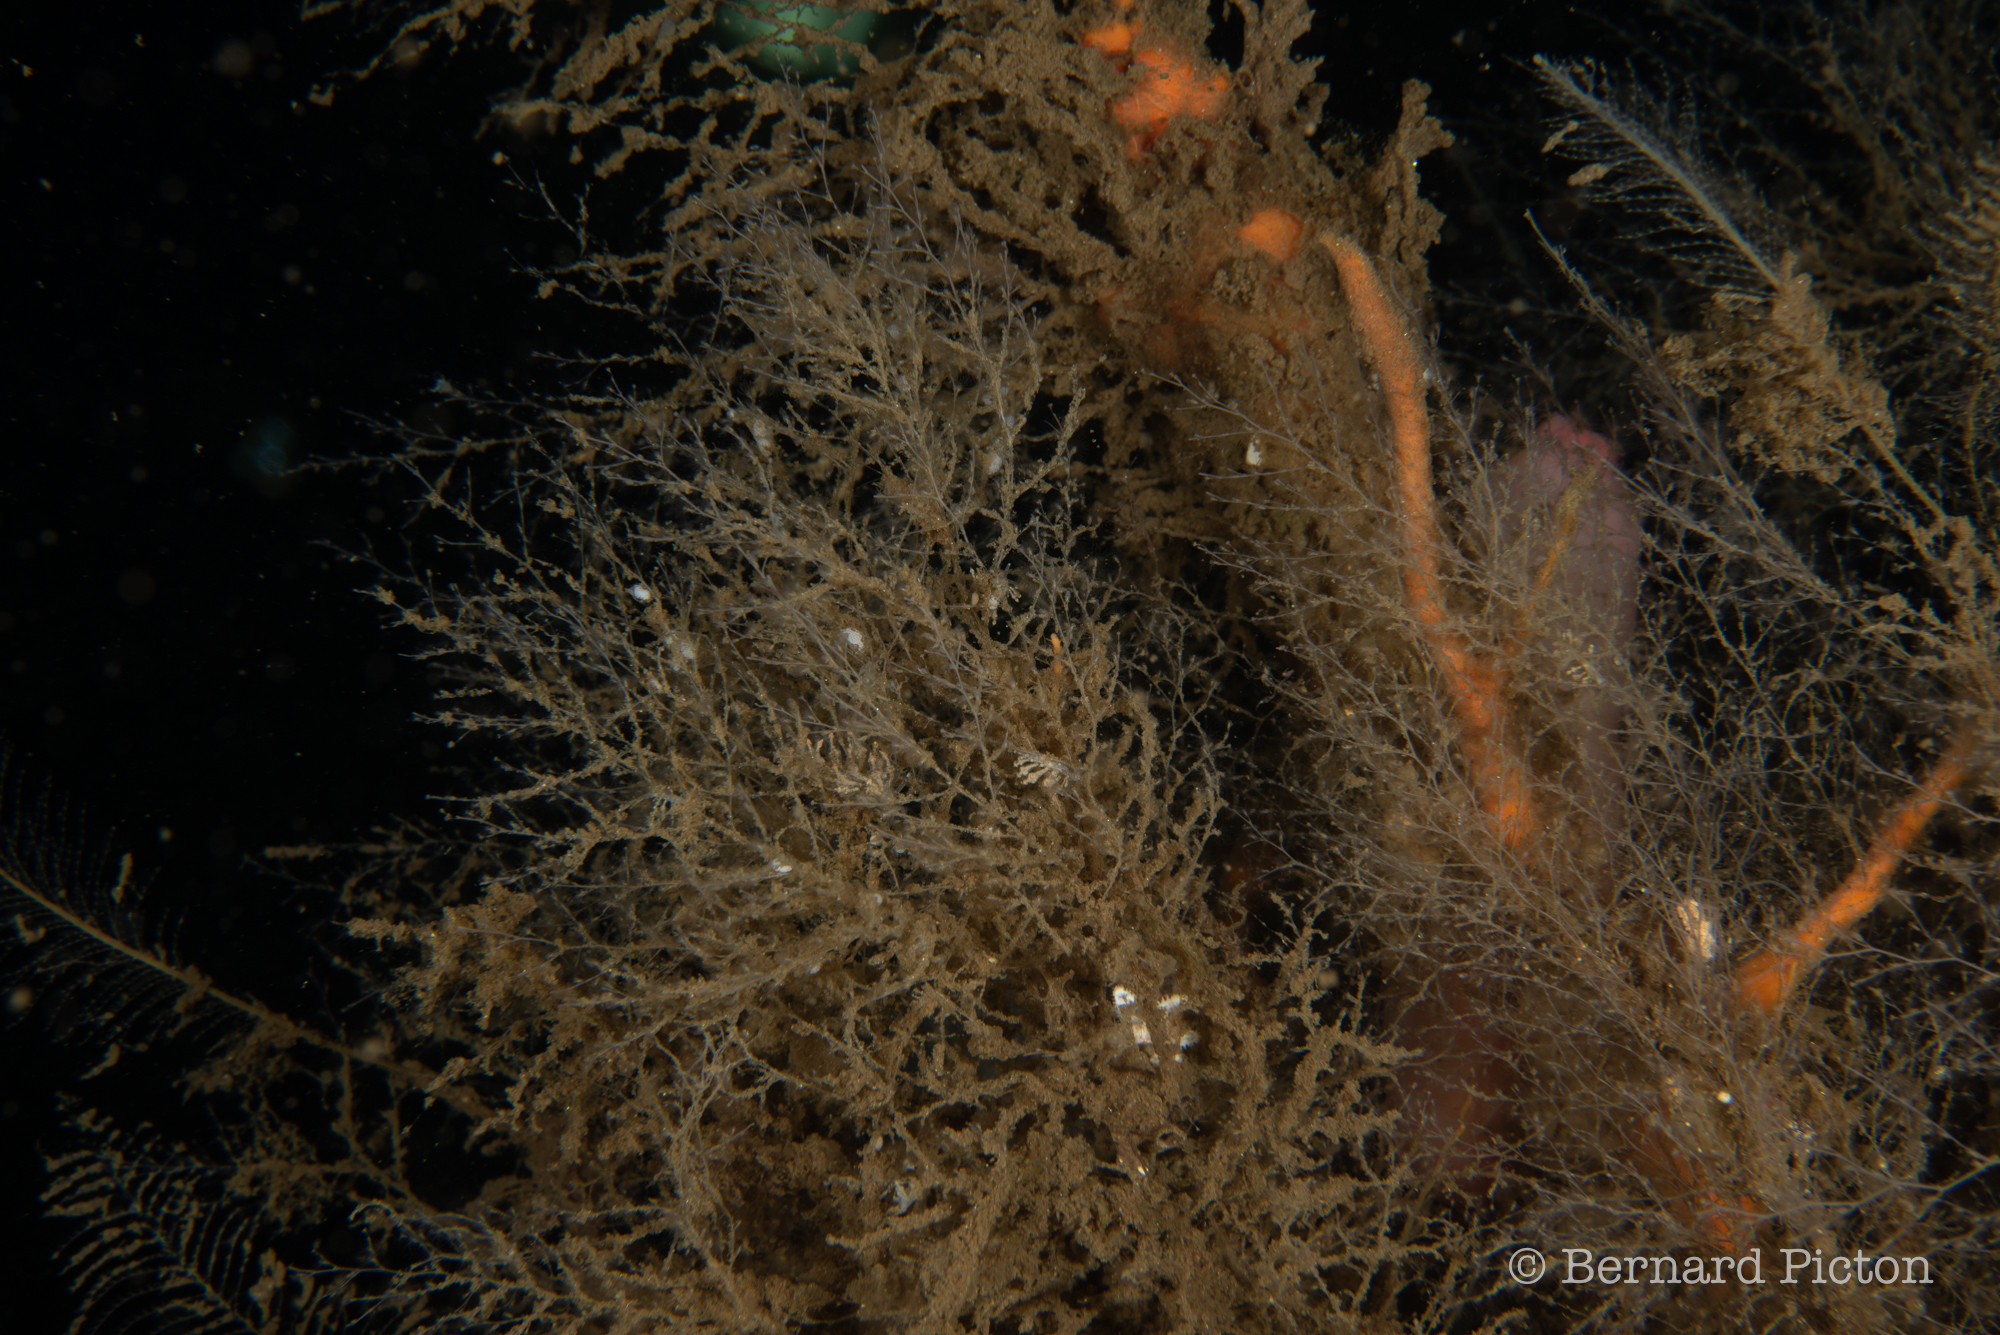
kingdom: Animalia
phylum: Mollusca
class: Gastropoda
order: Nudibranchia
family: Eubranchidae
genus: Eubranchus
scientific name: Eubranchus scintillans
